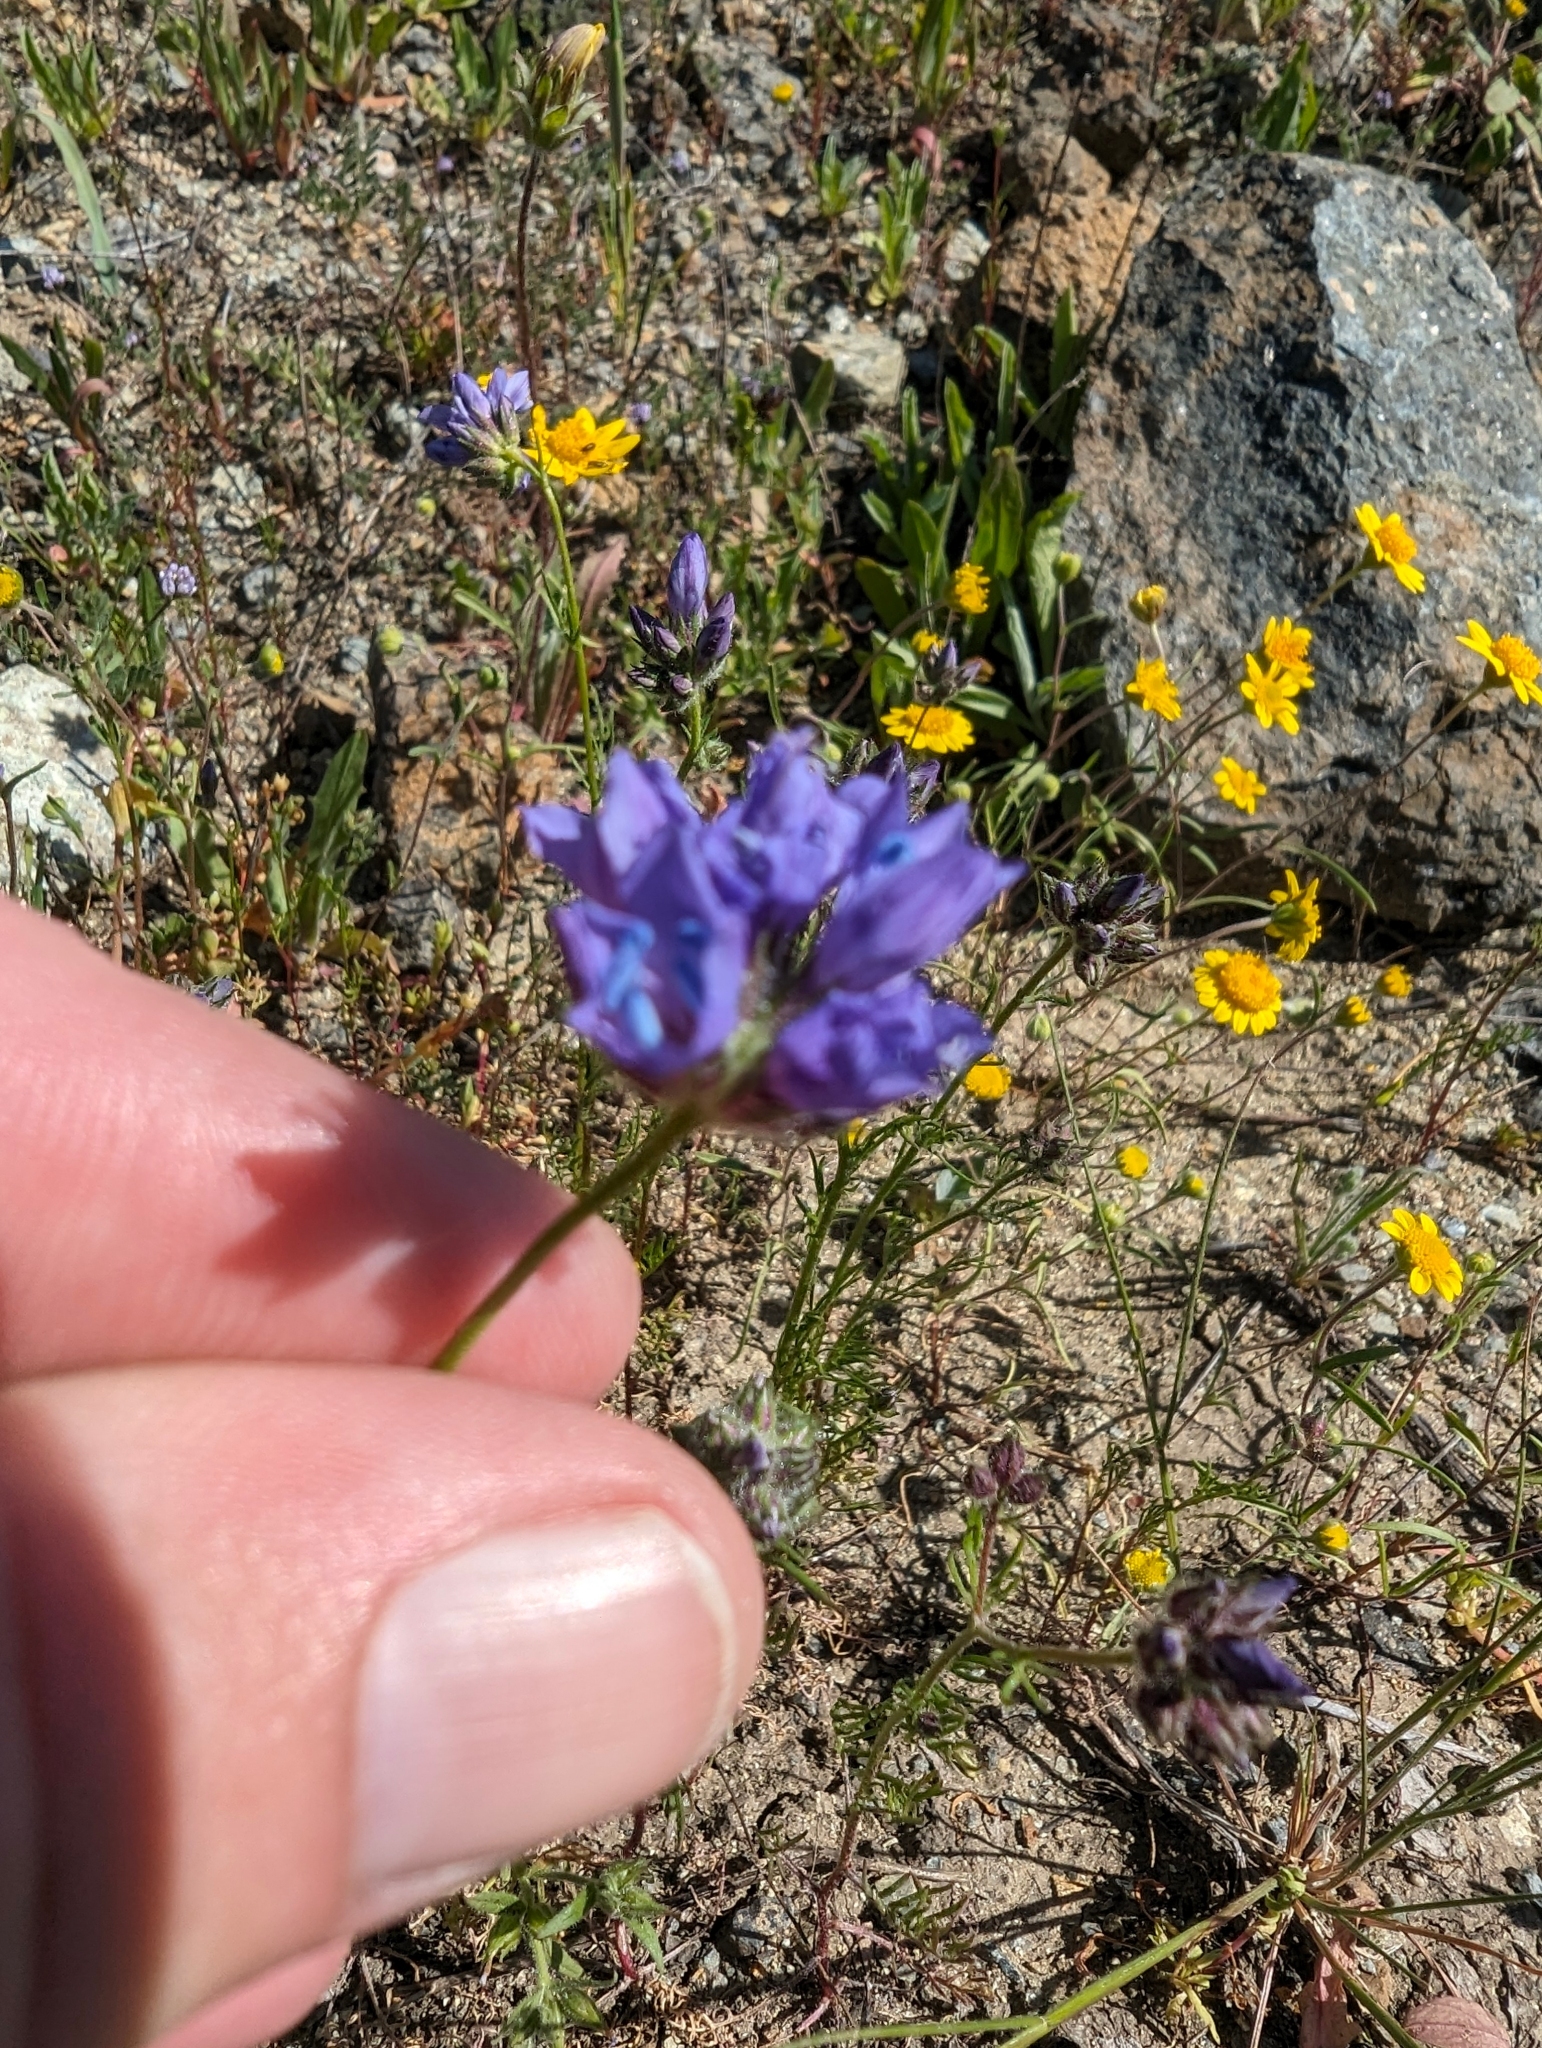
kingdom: Plantae
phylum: Tracheophyta
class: Magnoliopsida
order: Ericales
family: Polemoniaceae
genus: Gilia
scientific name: Gilia achilleifolia
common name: California gily-flower
